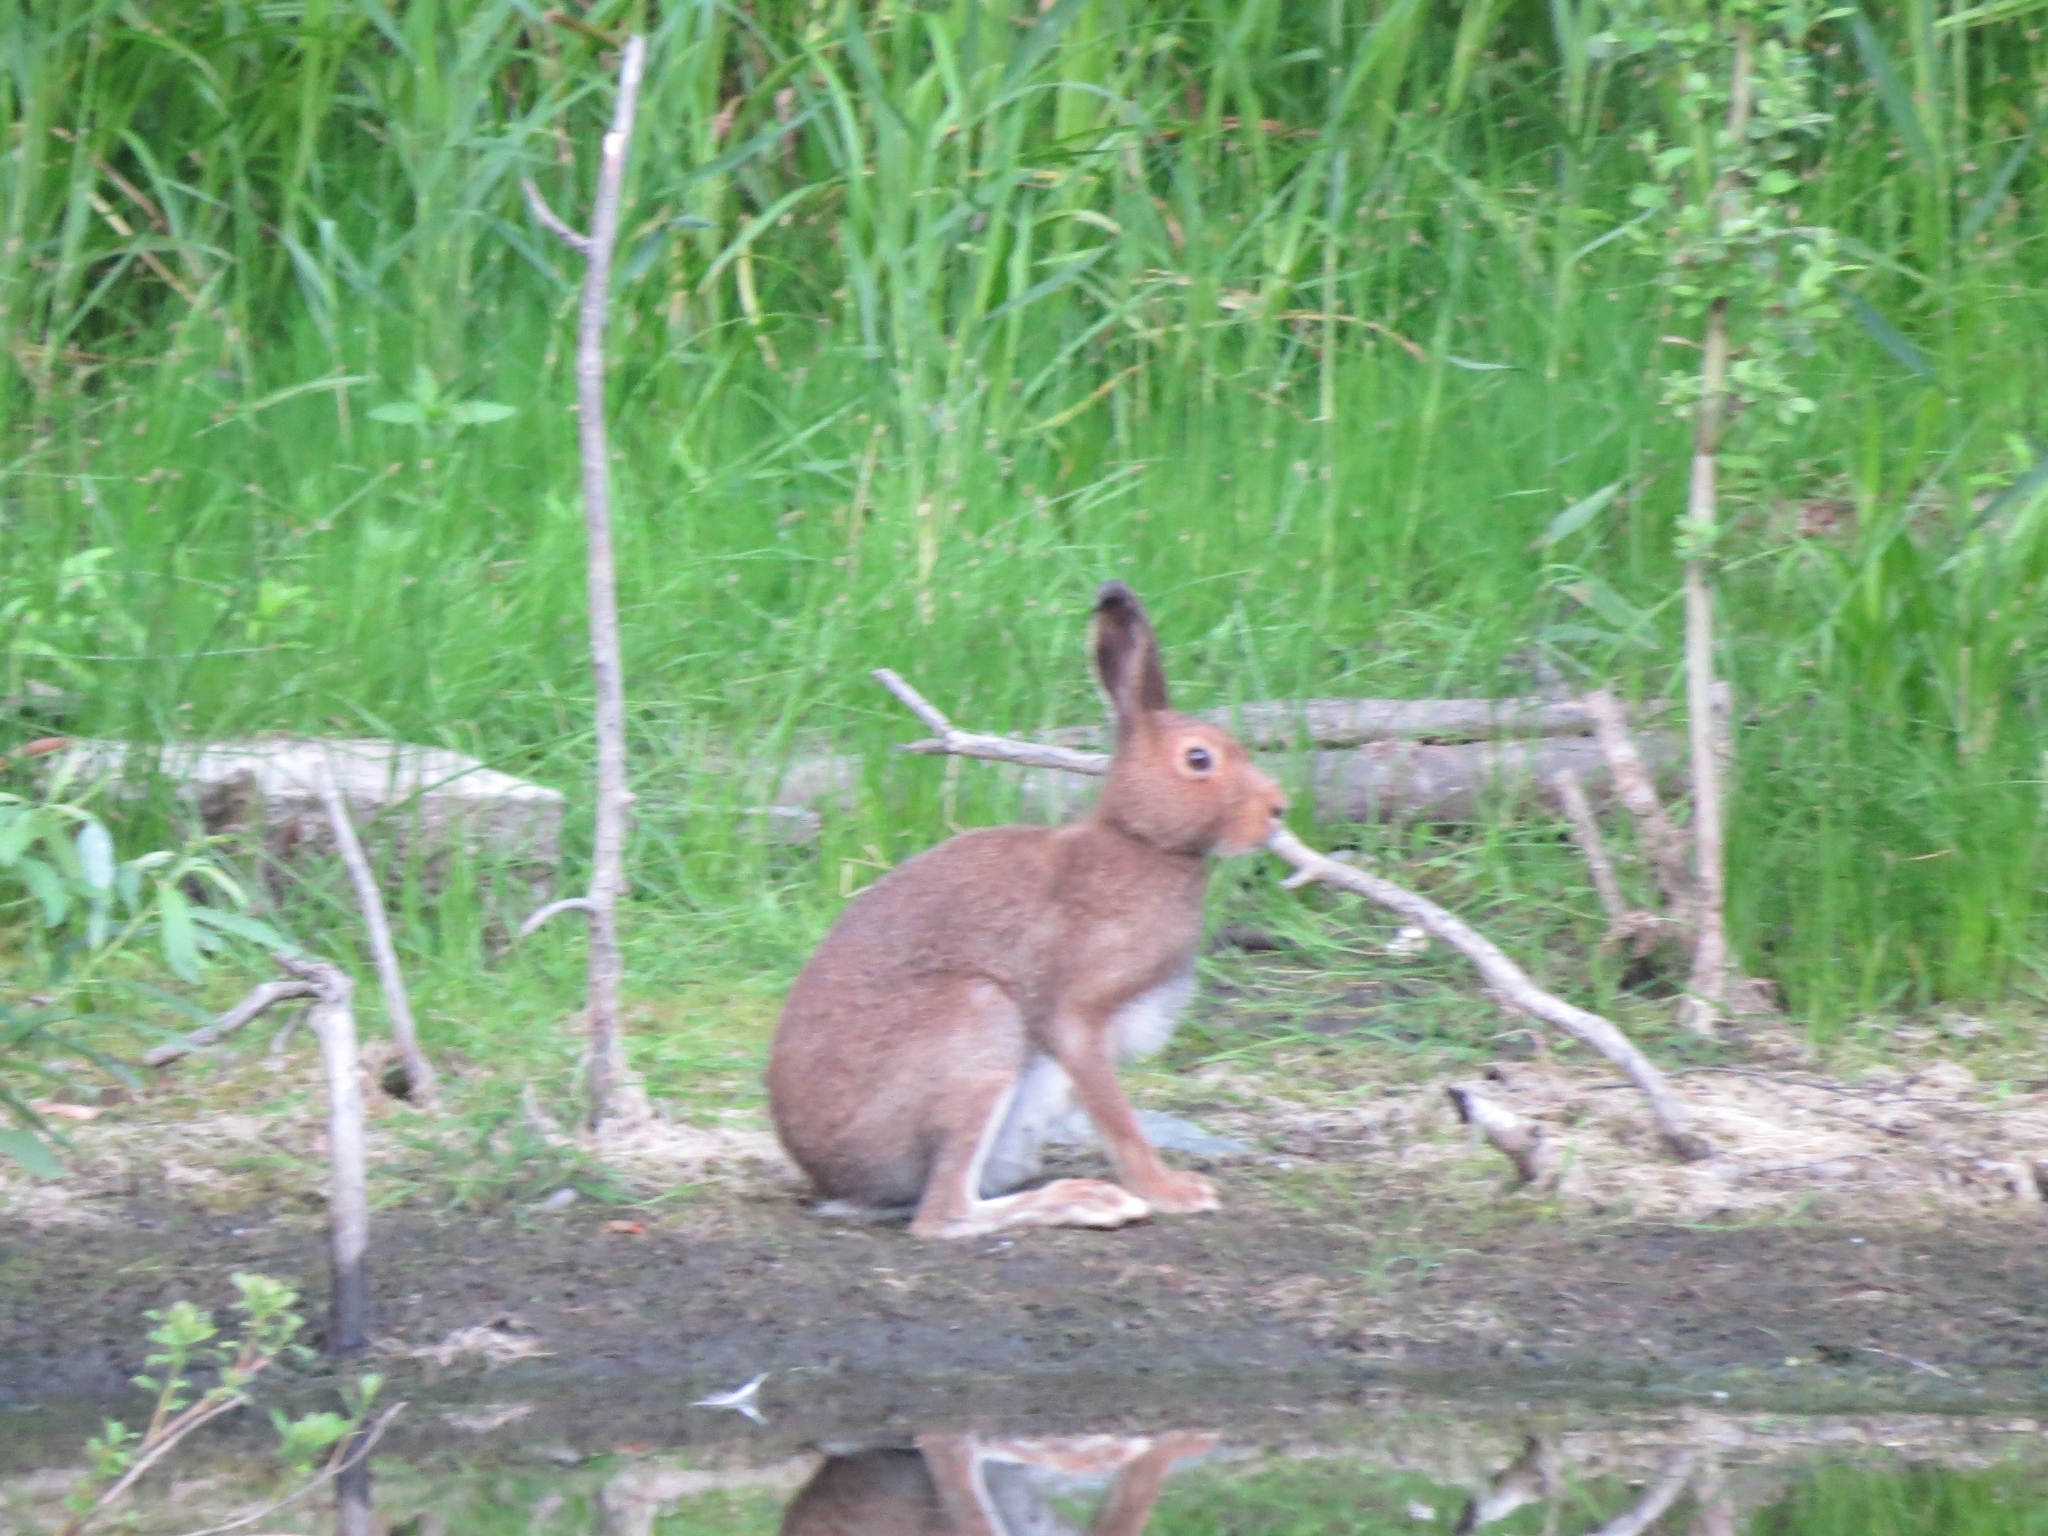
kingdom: Animalia
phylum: Chordata
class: Mammalia
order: Lagomorpha
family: Leporidae
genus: Lepus
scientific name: Lepus timidus
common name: Mountain hare
